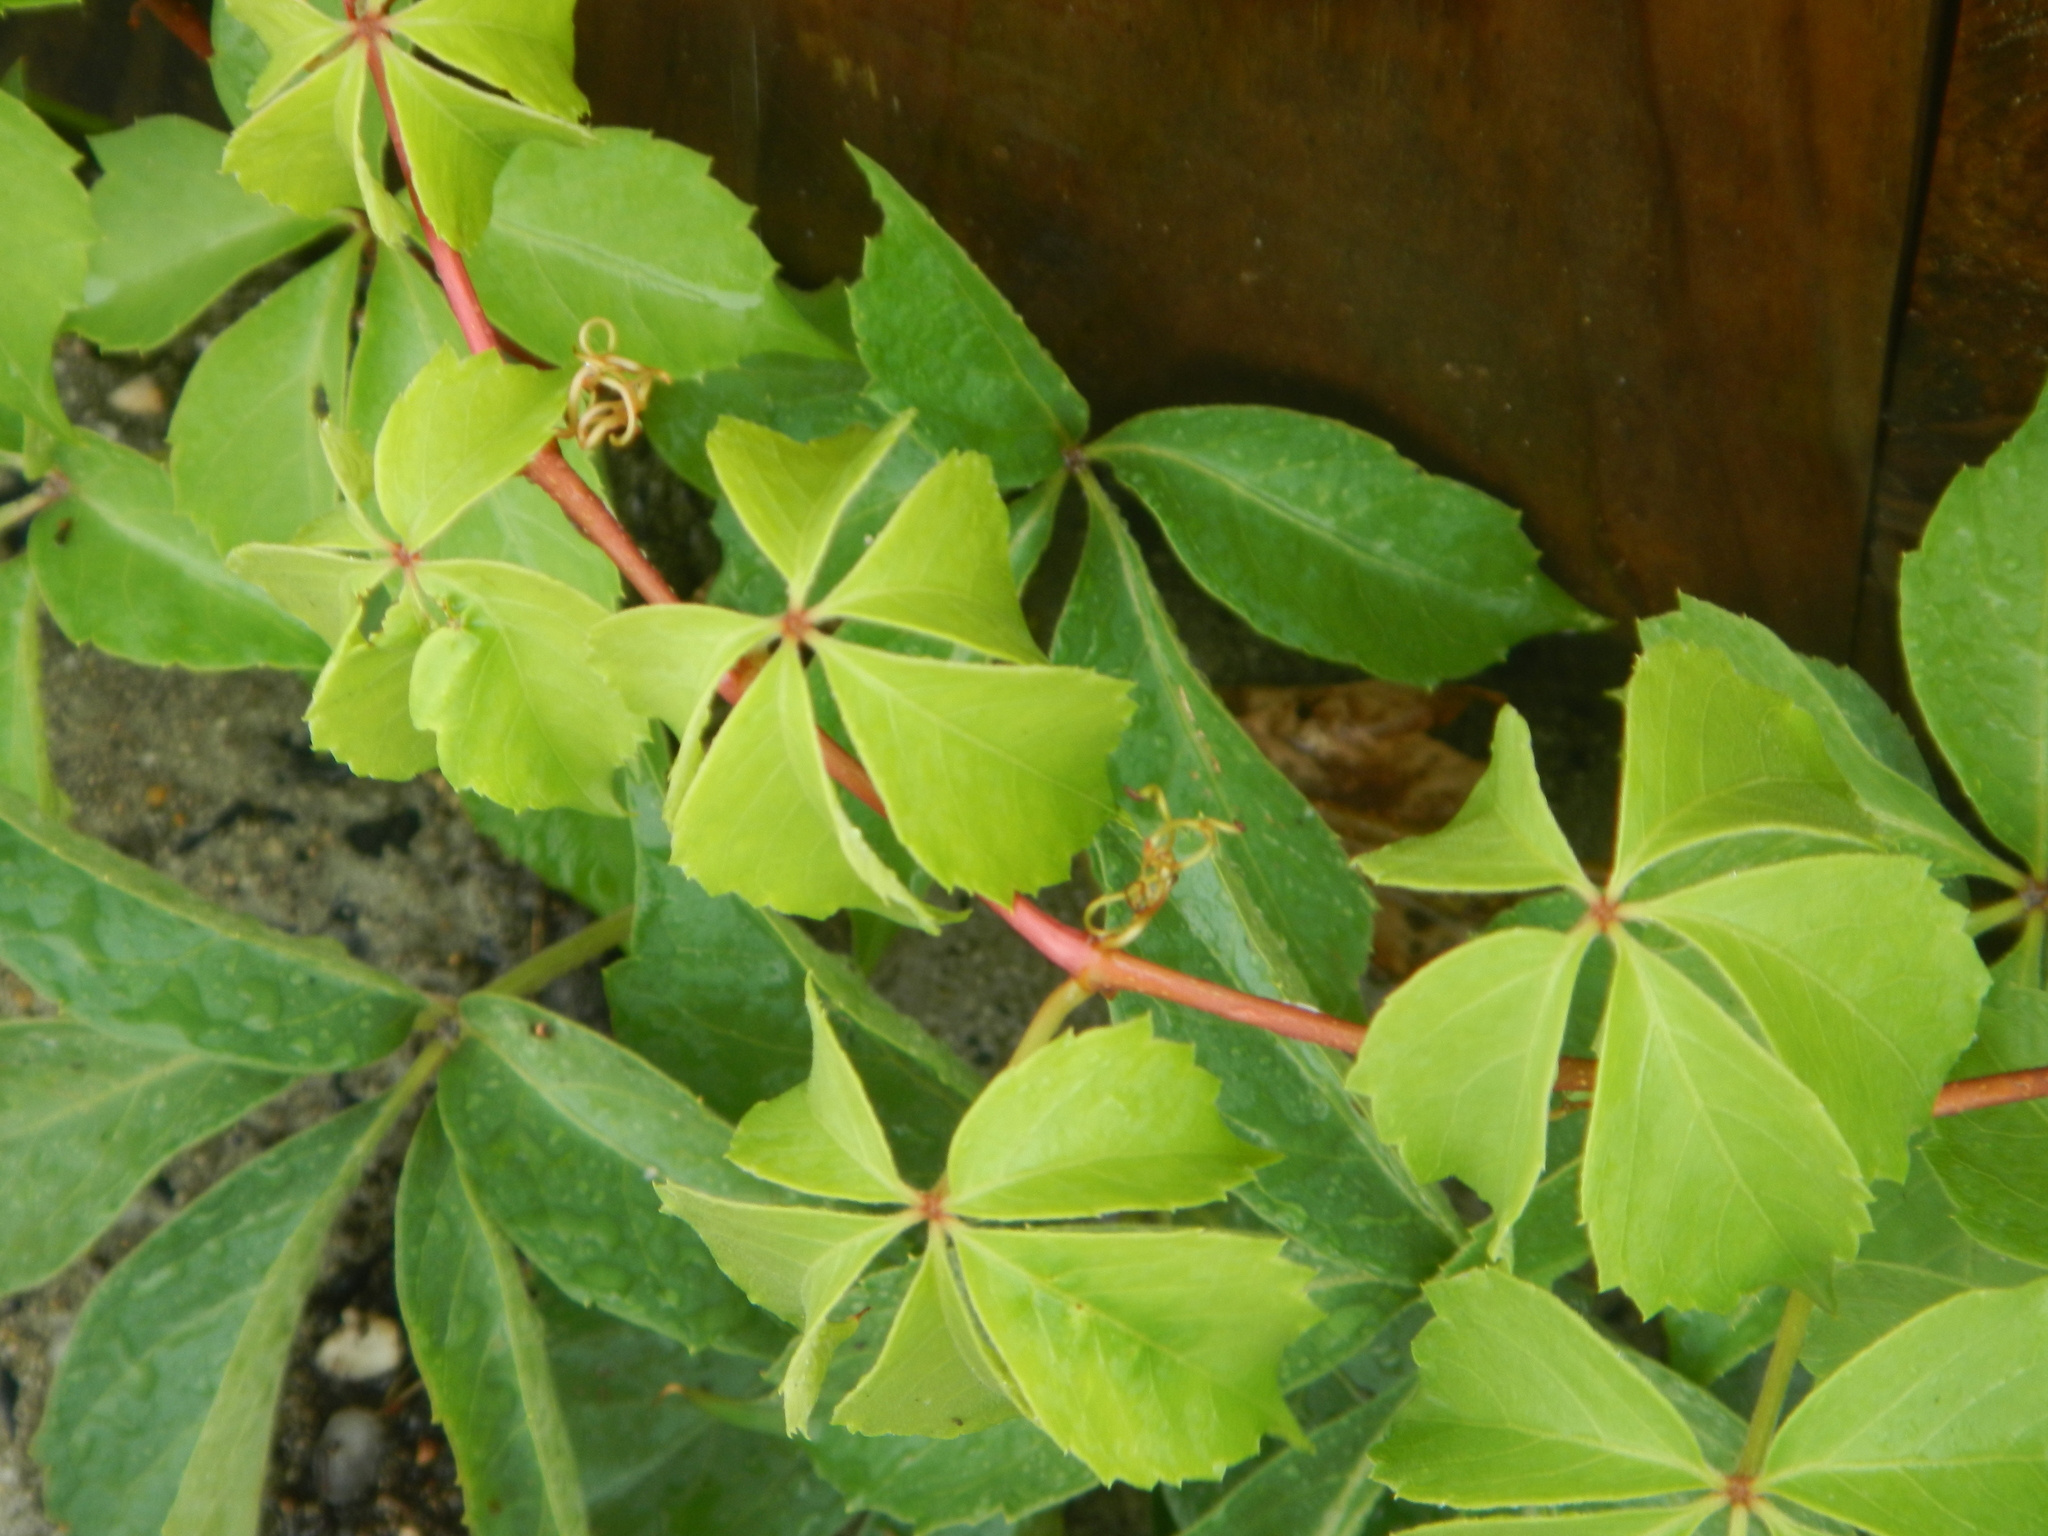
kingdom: Plantae
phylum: Tracheophyta
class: Magnoliopsida
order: Vitales
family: Vitaceae
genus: Parthenocissus
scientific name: Parthenocissus quinquefolia
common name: Virginia-creeper
